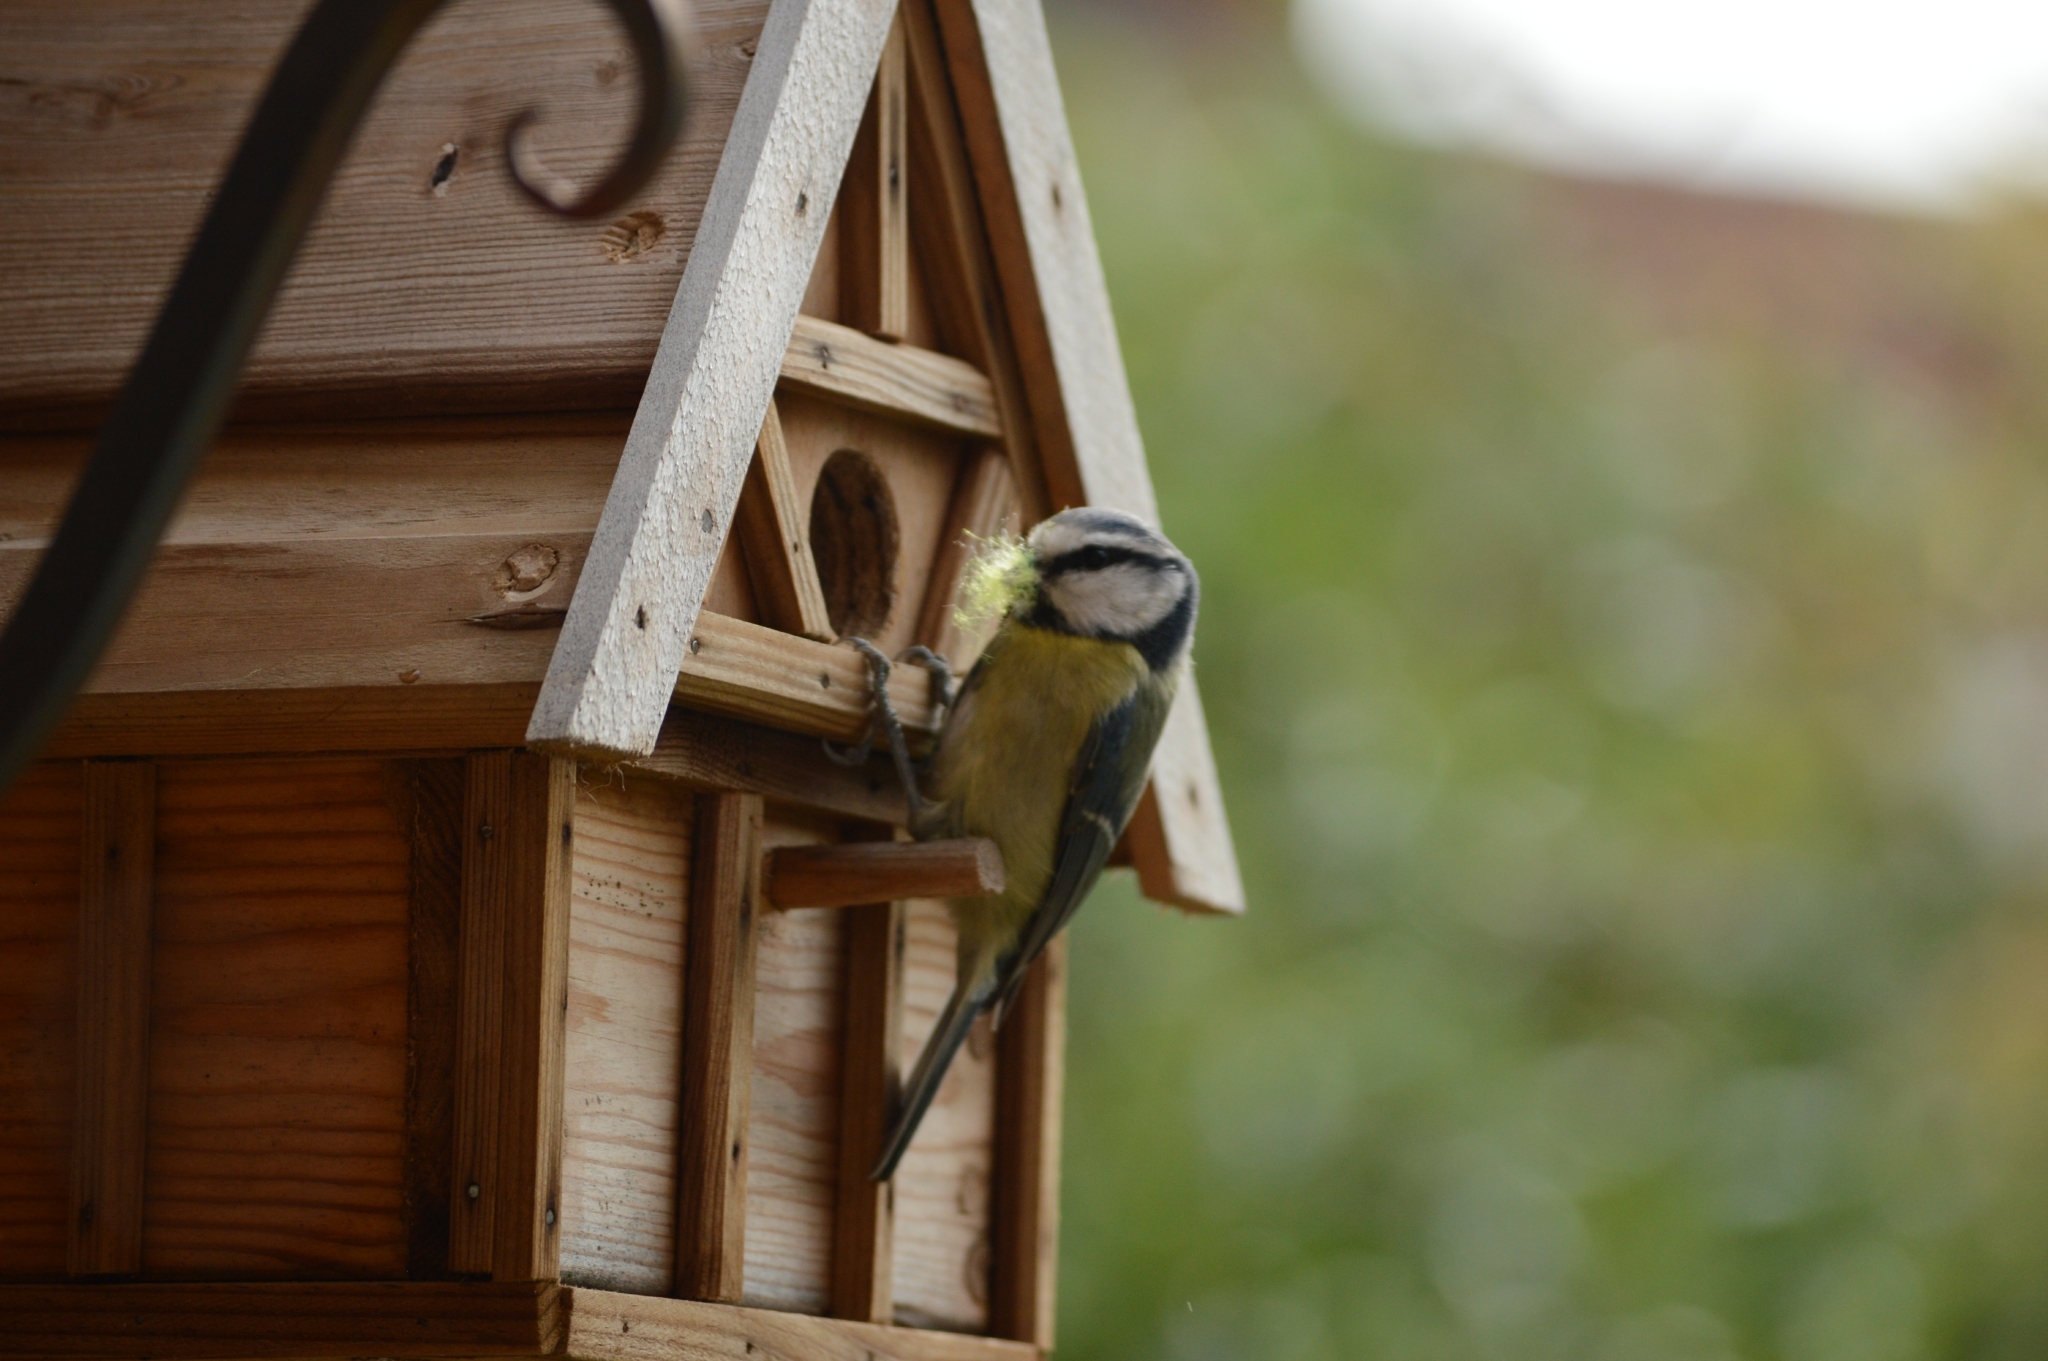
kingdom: Animalia
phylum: Chordata
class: Aves
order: Passeriformes
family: Paridae
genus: Cyanistes
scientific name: Cyanistes caeruleus
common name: Eurasian blue tit
